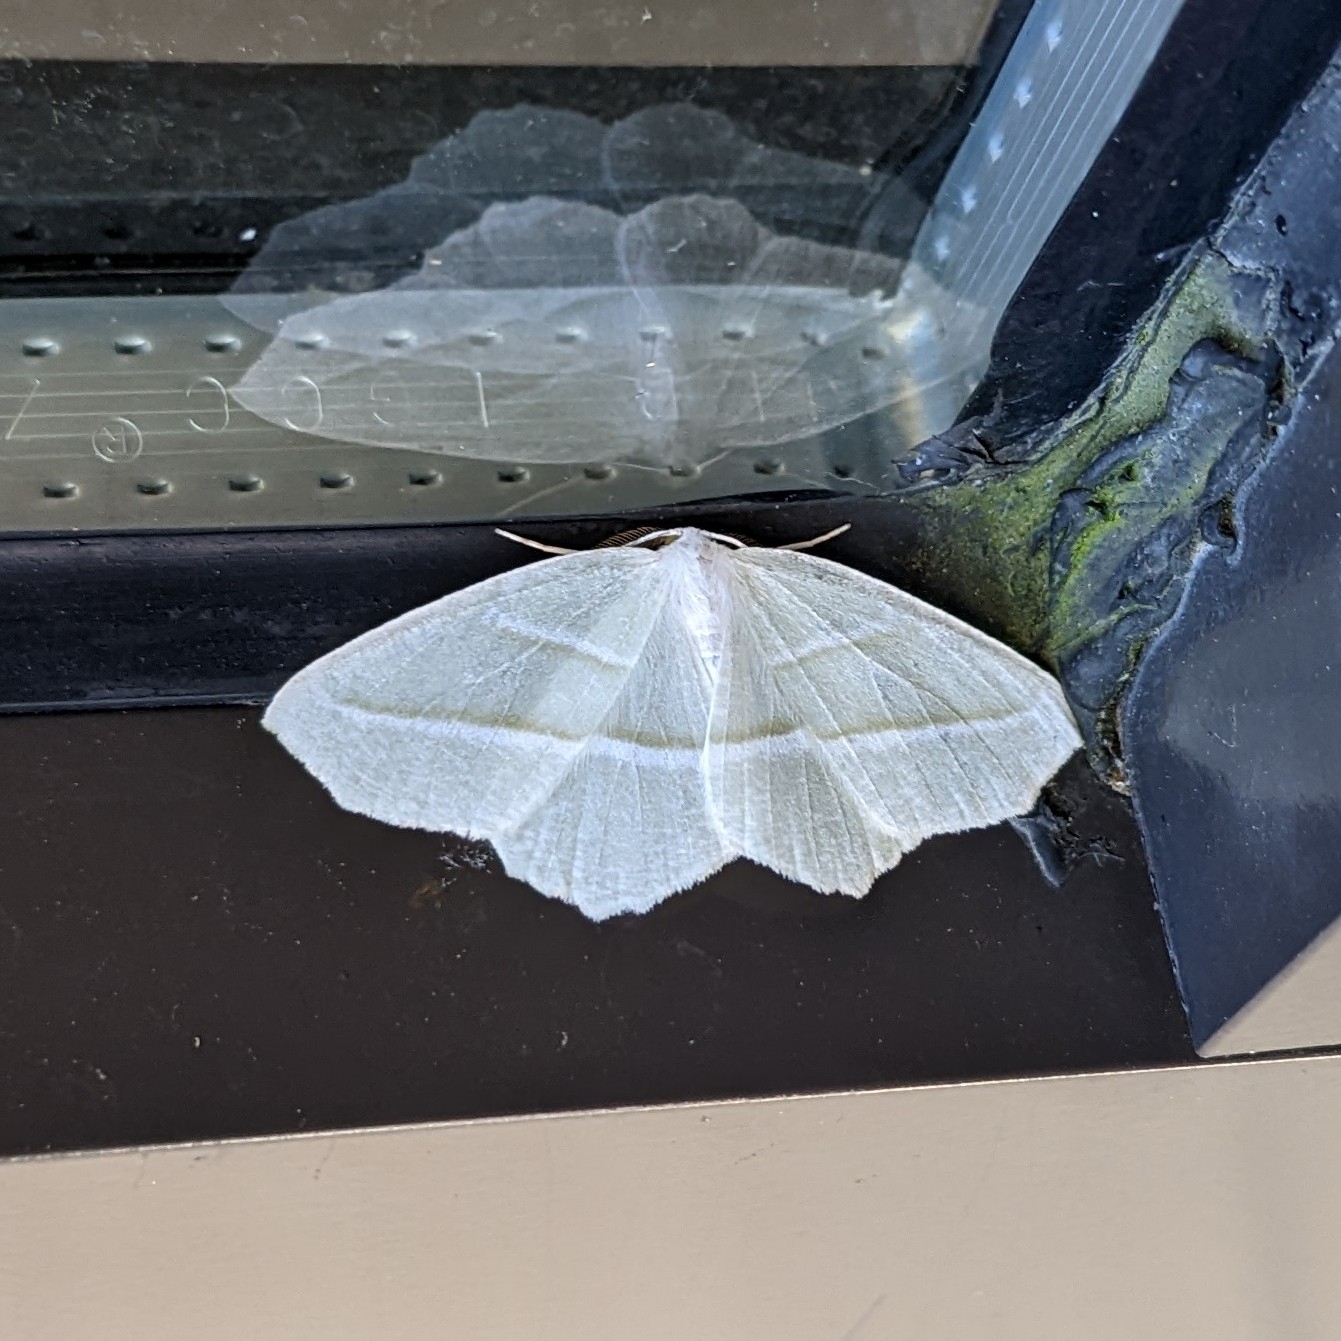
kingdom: Animalia
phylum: Arthropoda
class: Insecta
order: Lepidoptera
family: Geometridae
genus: Campaea
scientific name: Campaea perlata
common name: Fringed looper
